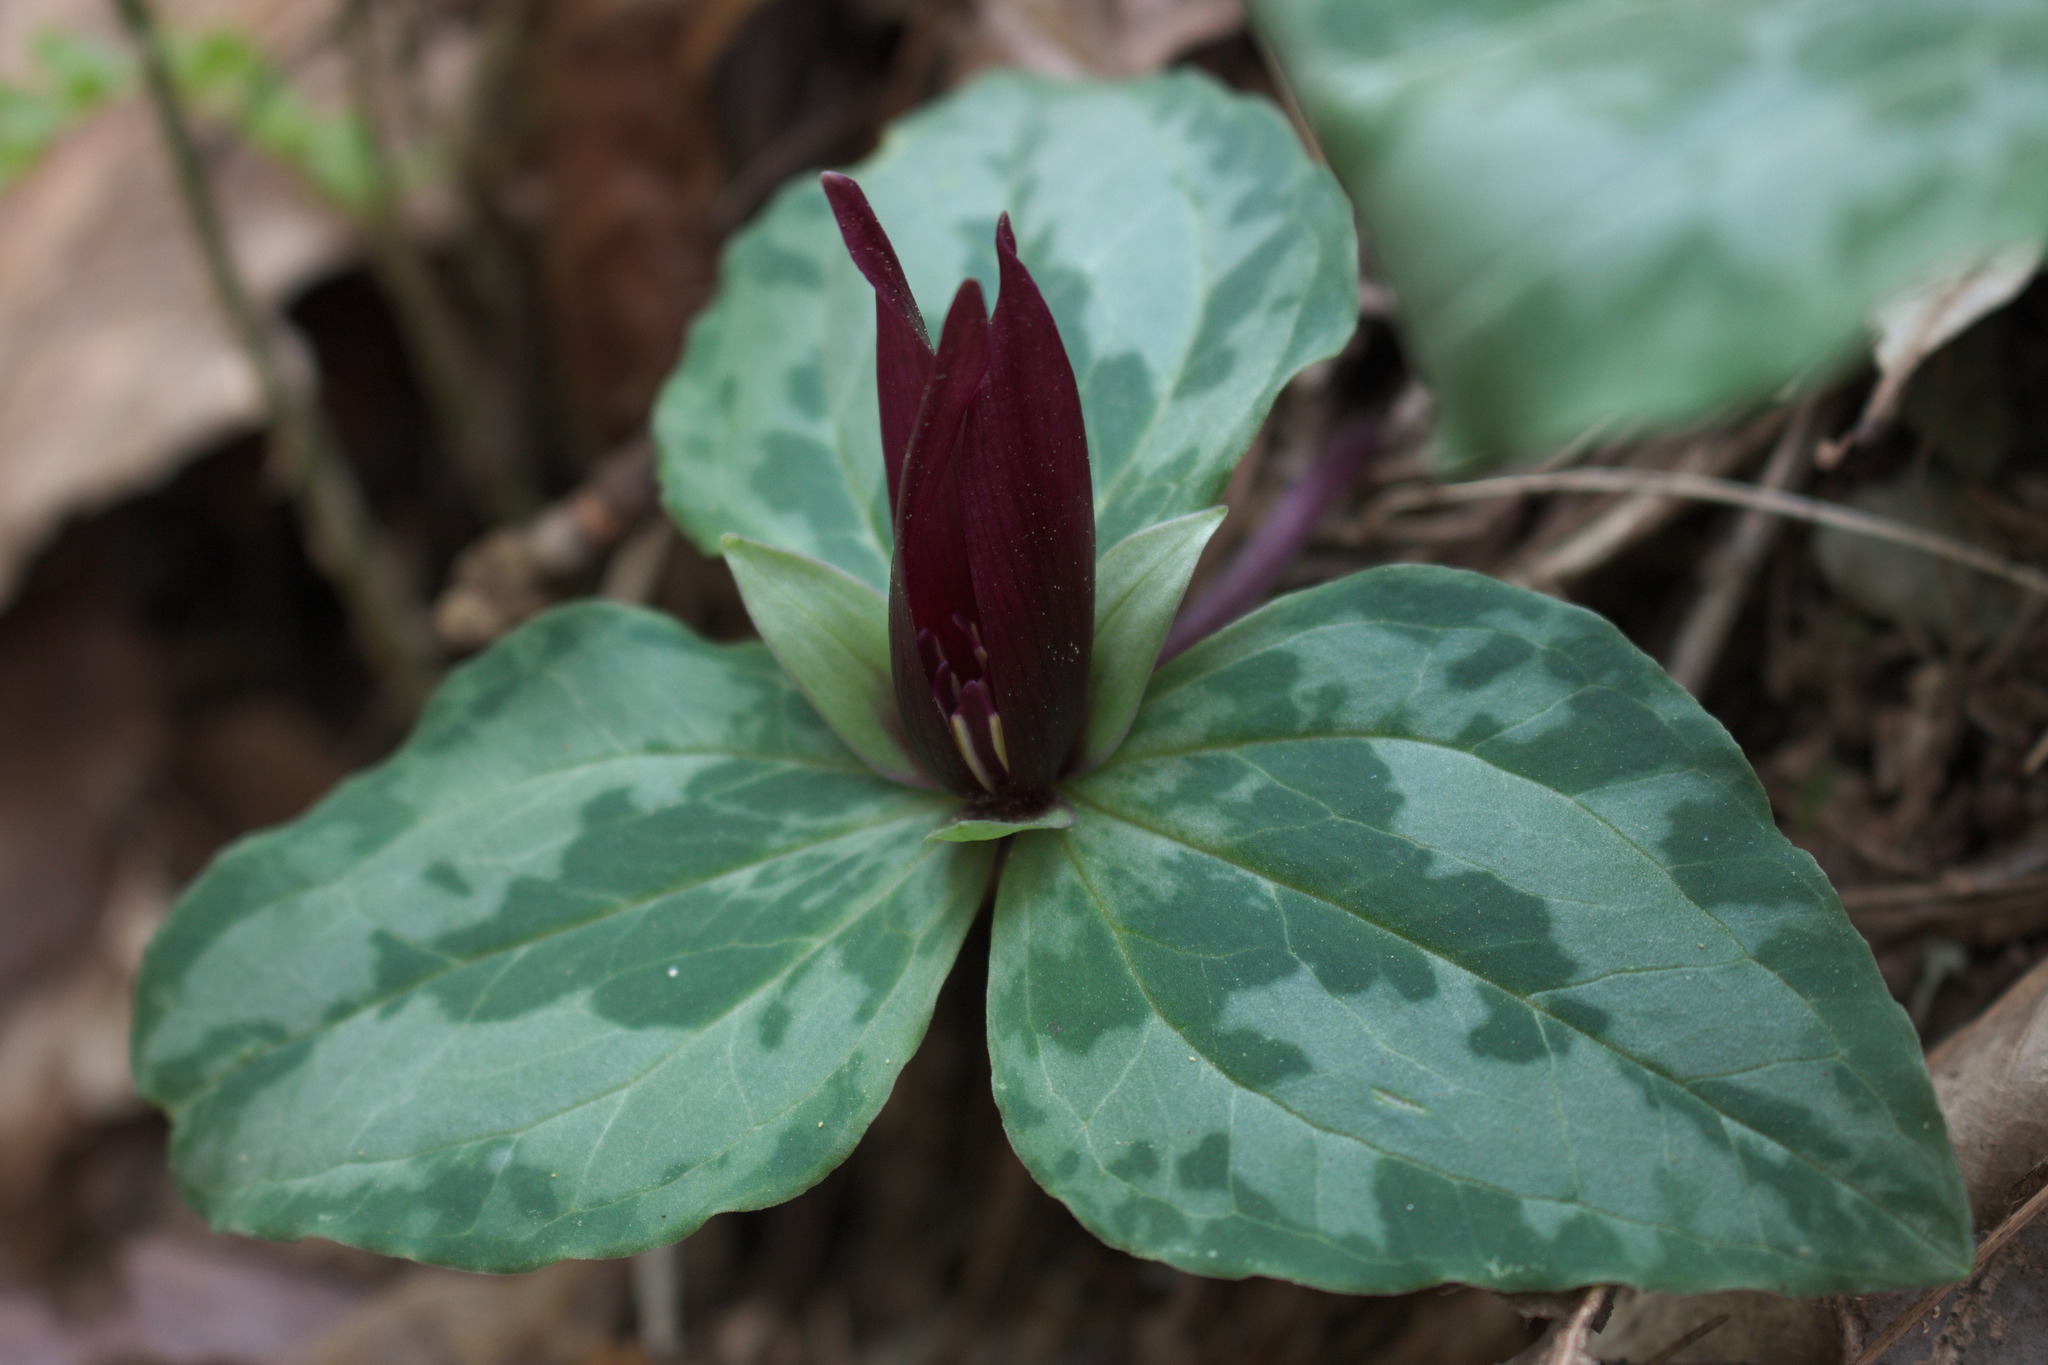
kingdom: Plantae
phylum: Tracheophyta
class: Liliopsida
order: Liliales
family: Melanthiaceae
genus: Trillium
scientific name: Trillium decumbens
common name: Decumbent trillium
